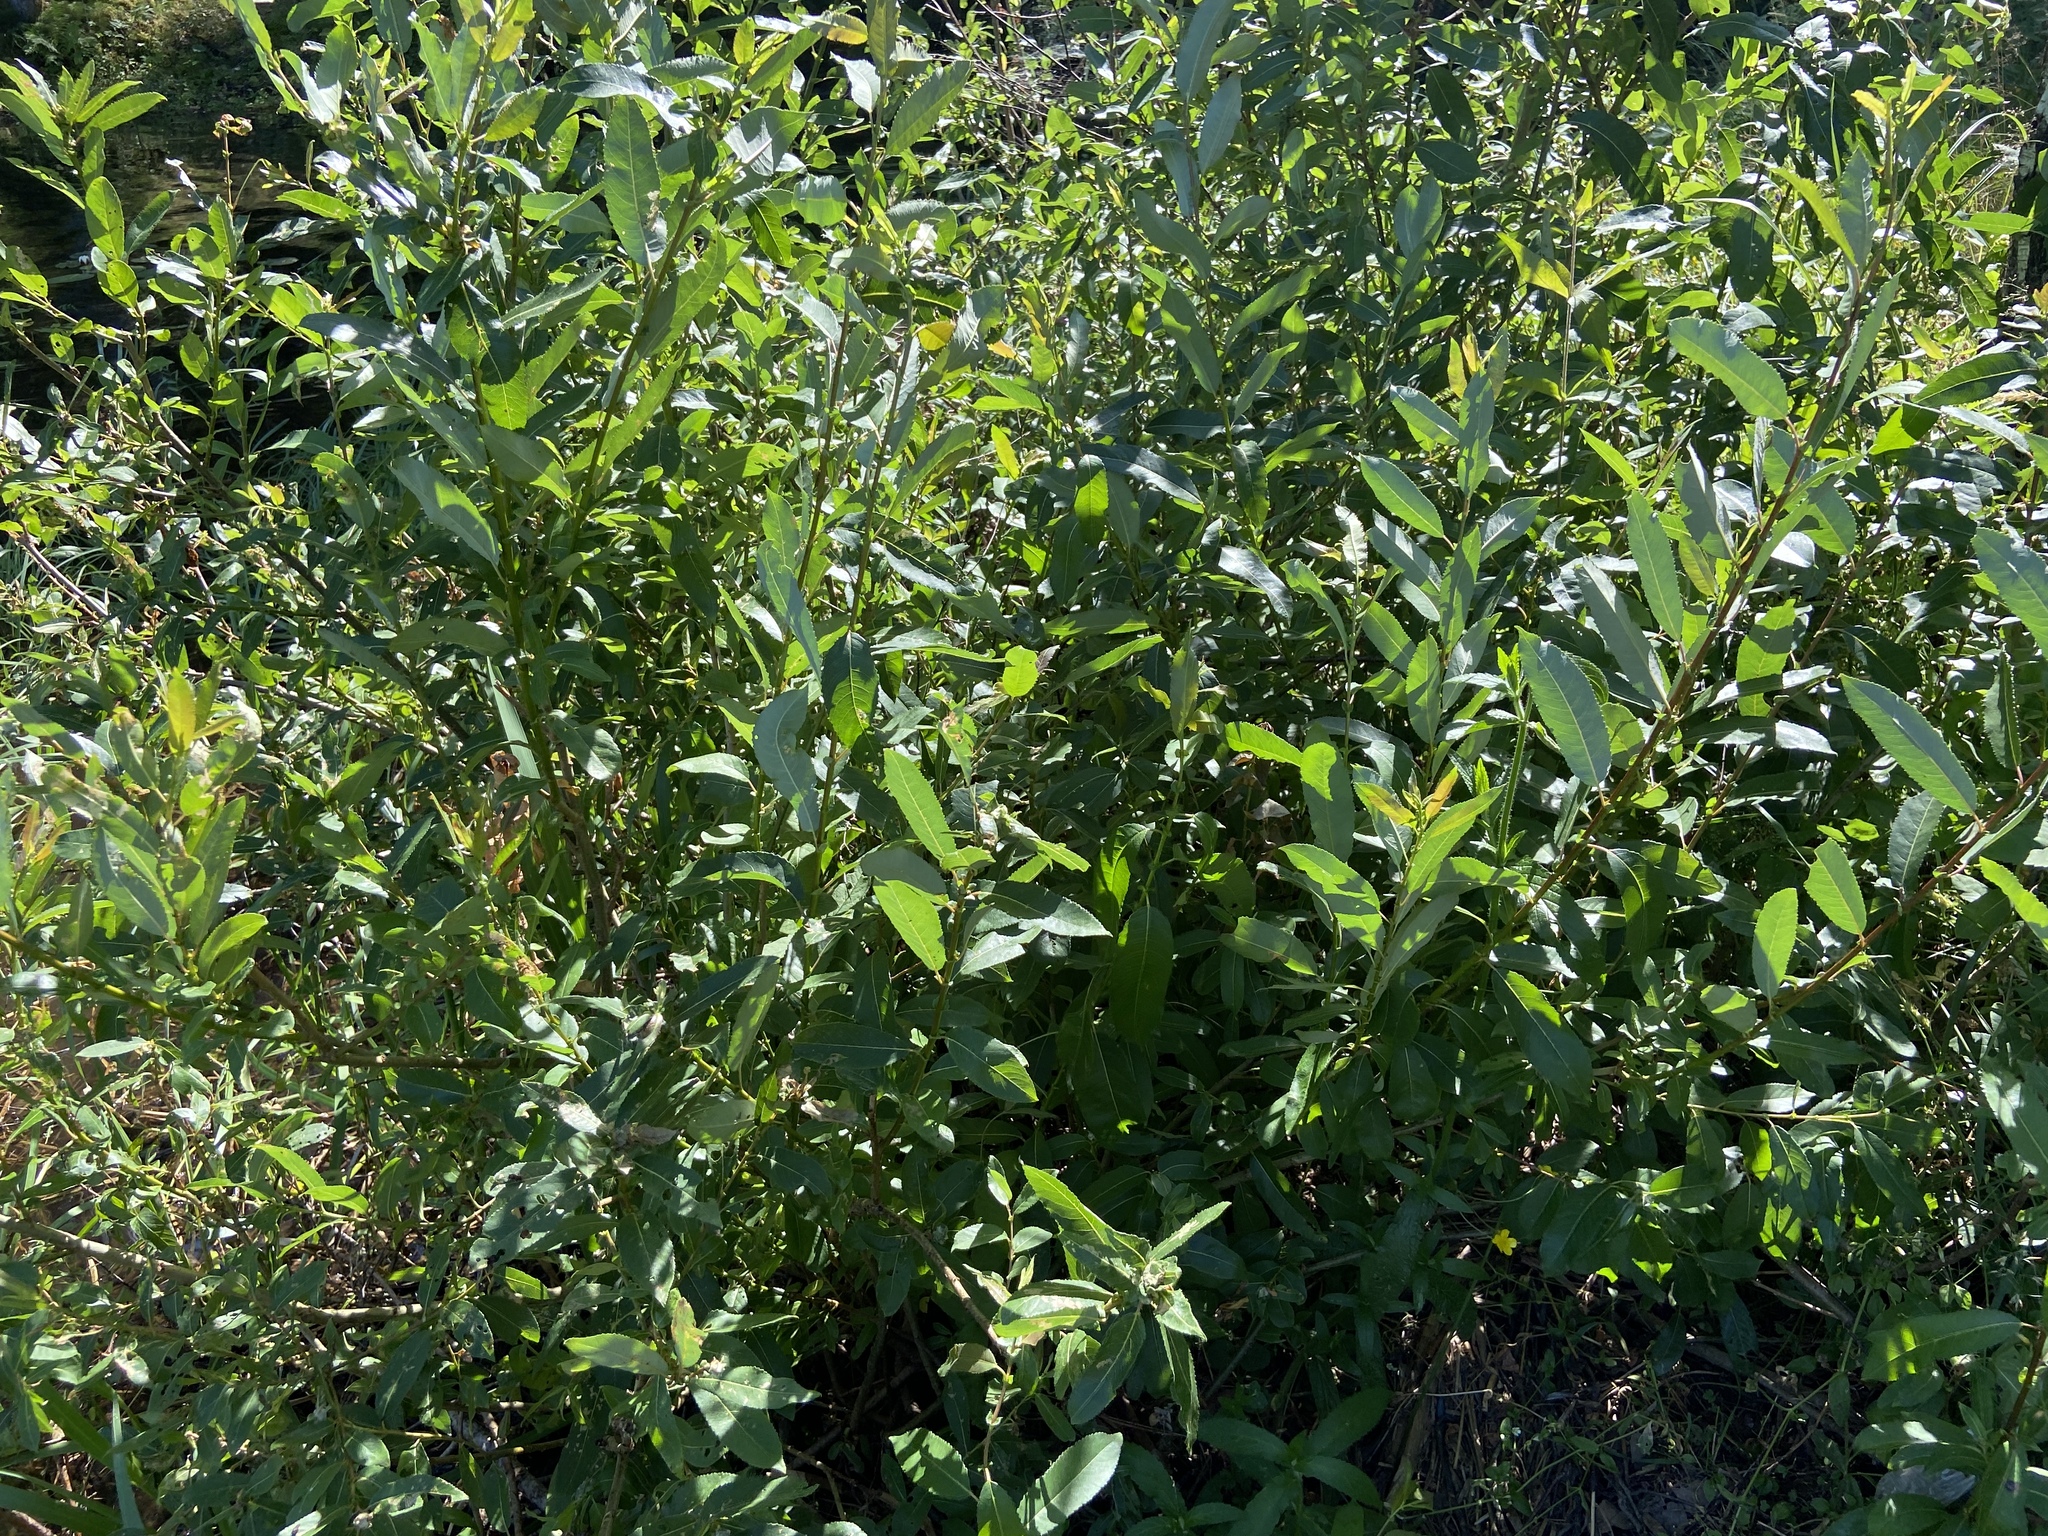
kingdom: Plantae
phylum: Tracheophyta
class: Magnoliopsida
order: Malpighiales
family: Salicaceae
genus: Salix
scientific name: Salix triandra
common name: Almond willow
